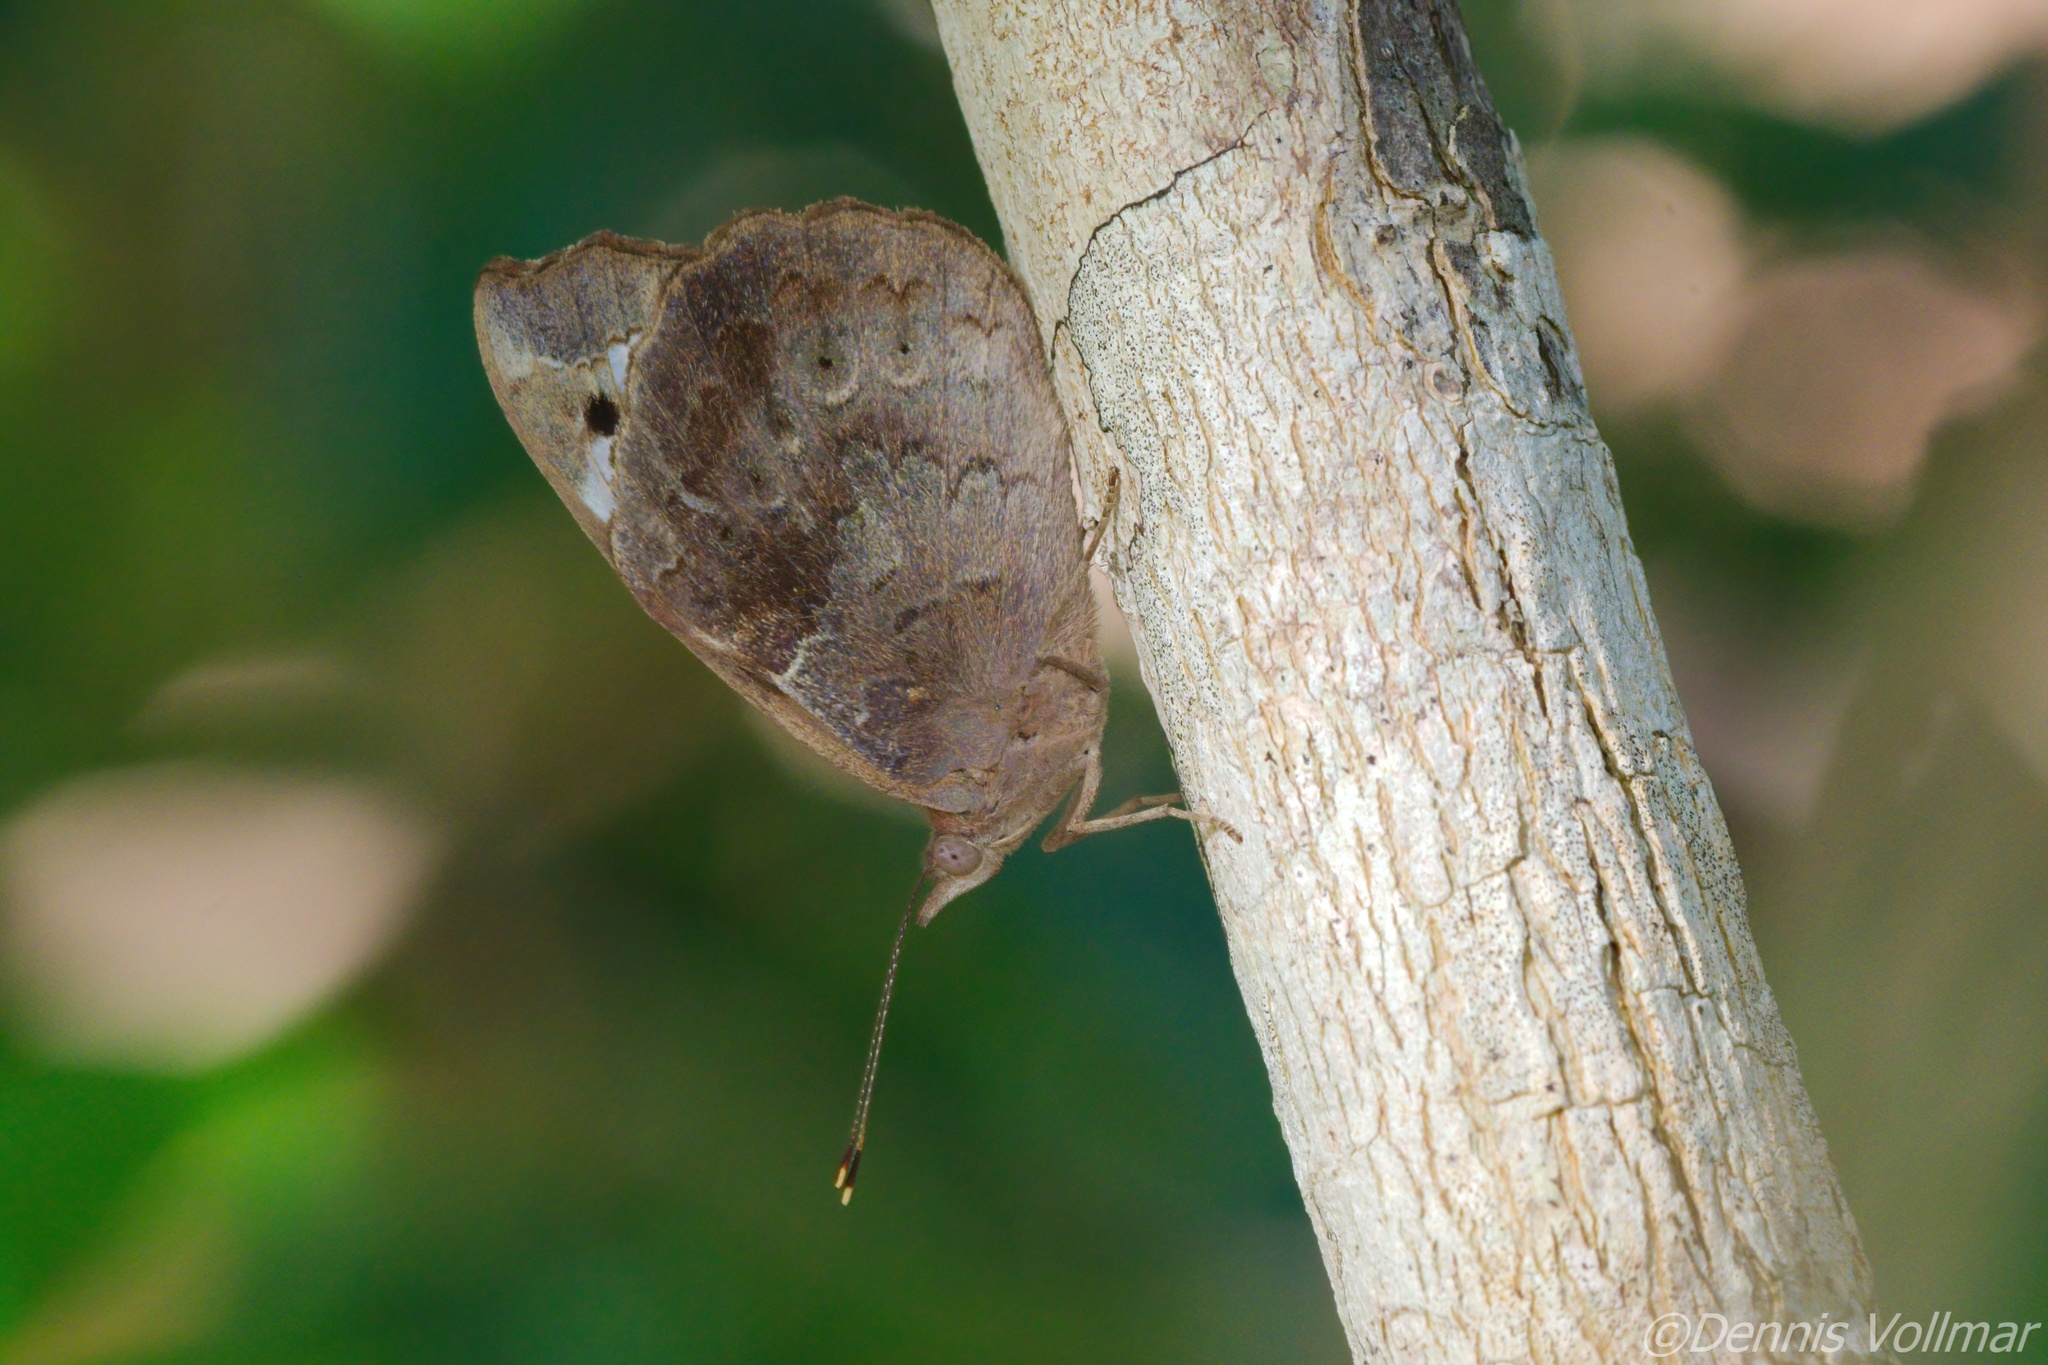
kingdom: Animalia
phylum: Arthropoda
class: Insecta
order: Lepidoptera
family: Nymphalidae
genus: Eunica
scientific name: Eunica tatila
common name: Florida purplewing
